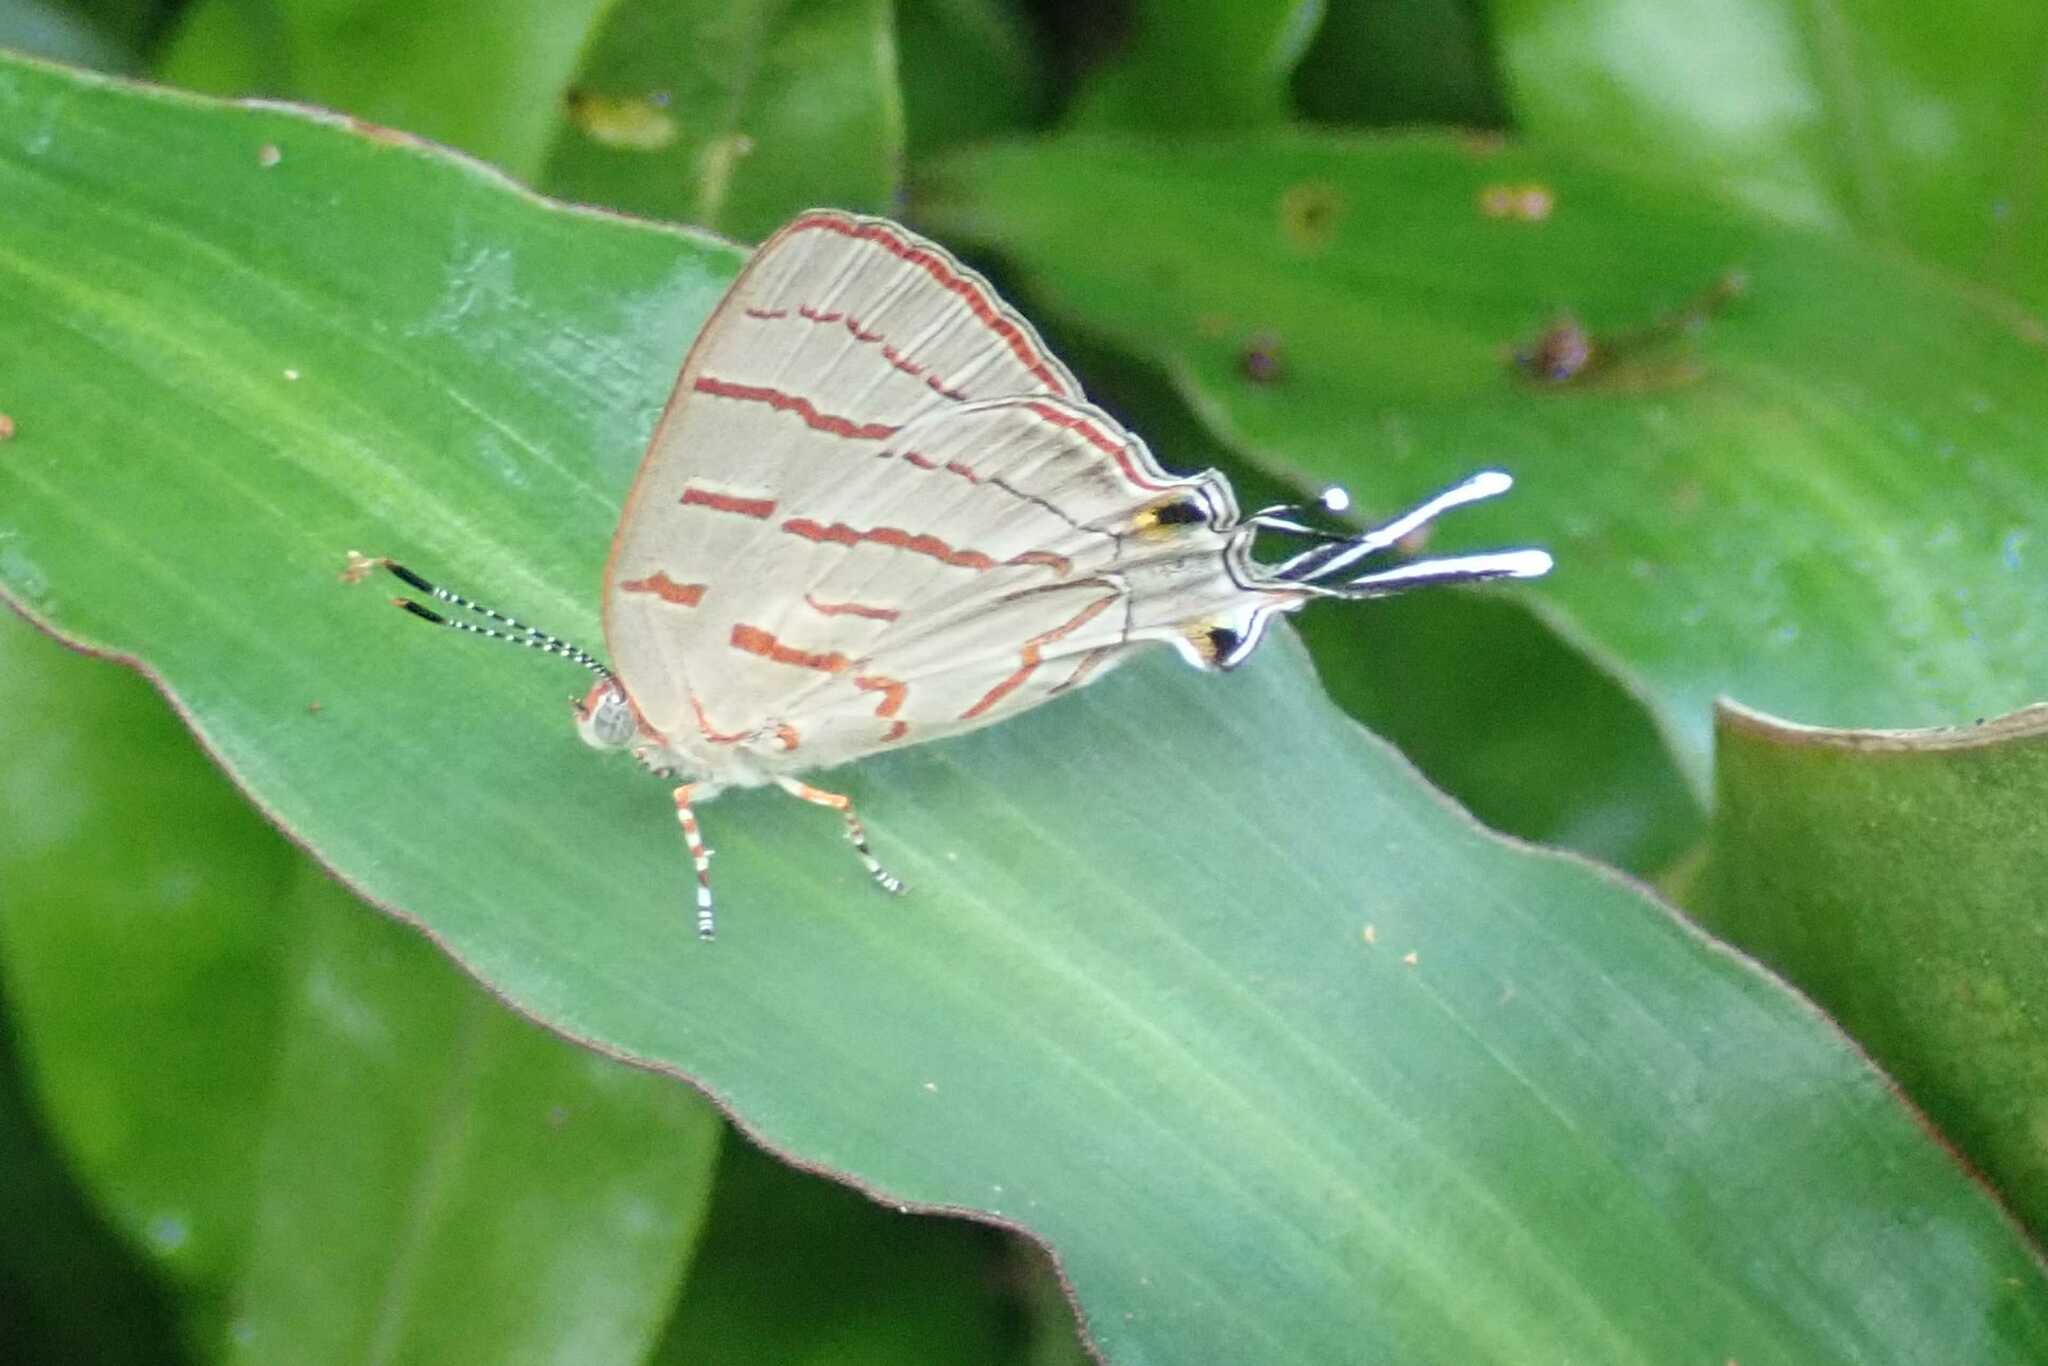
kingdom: Animalia
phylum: Arthropoda
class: Insecta
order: Lepidoptera
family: Lycaenidae
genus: Hemiolaus
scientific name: Hemiolaus caeculus
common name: Azure hairstreak
